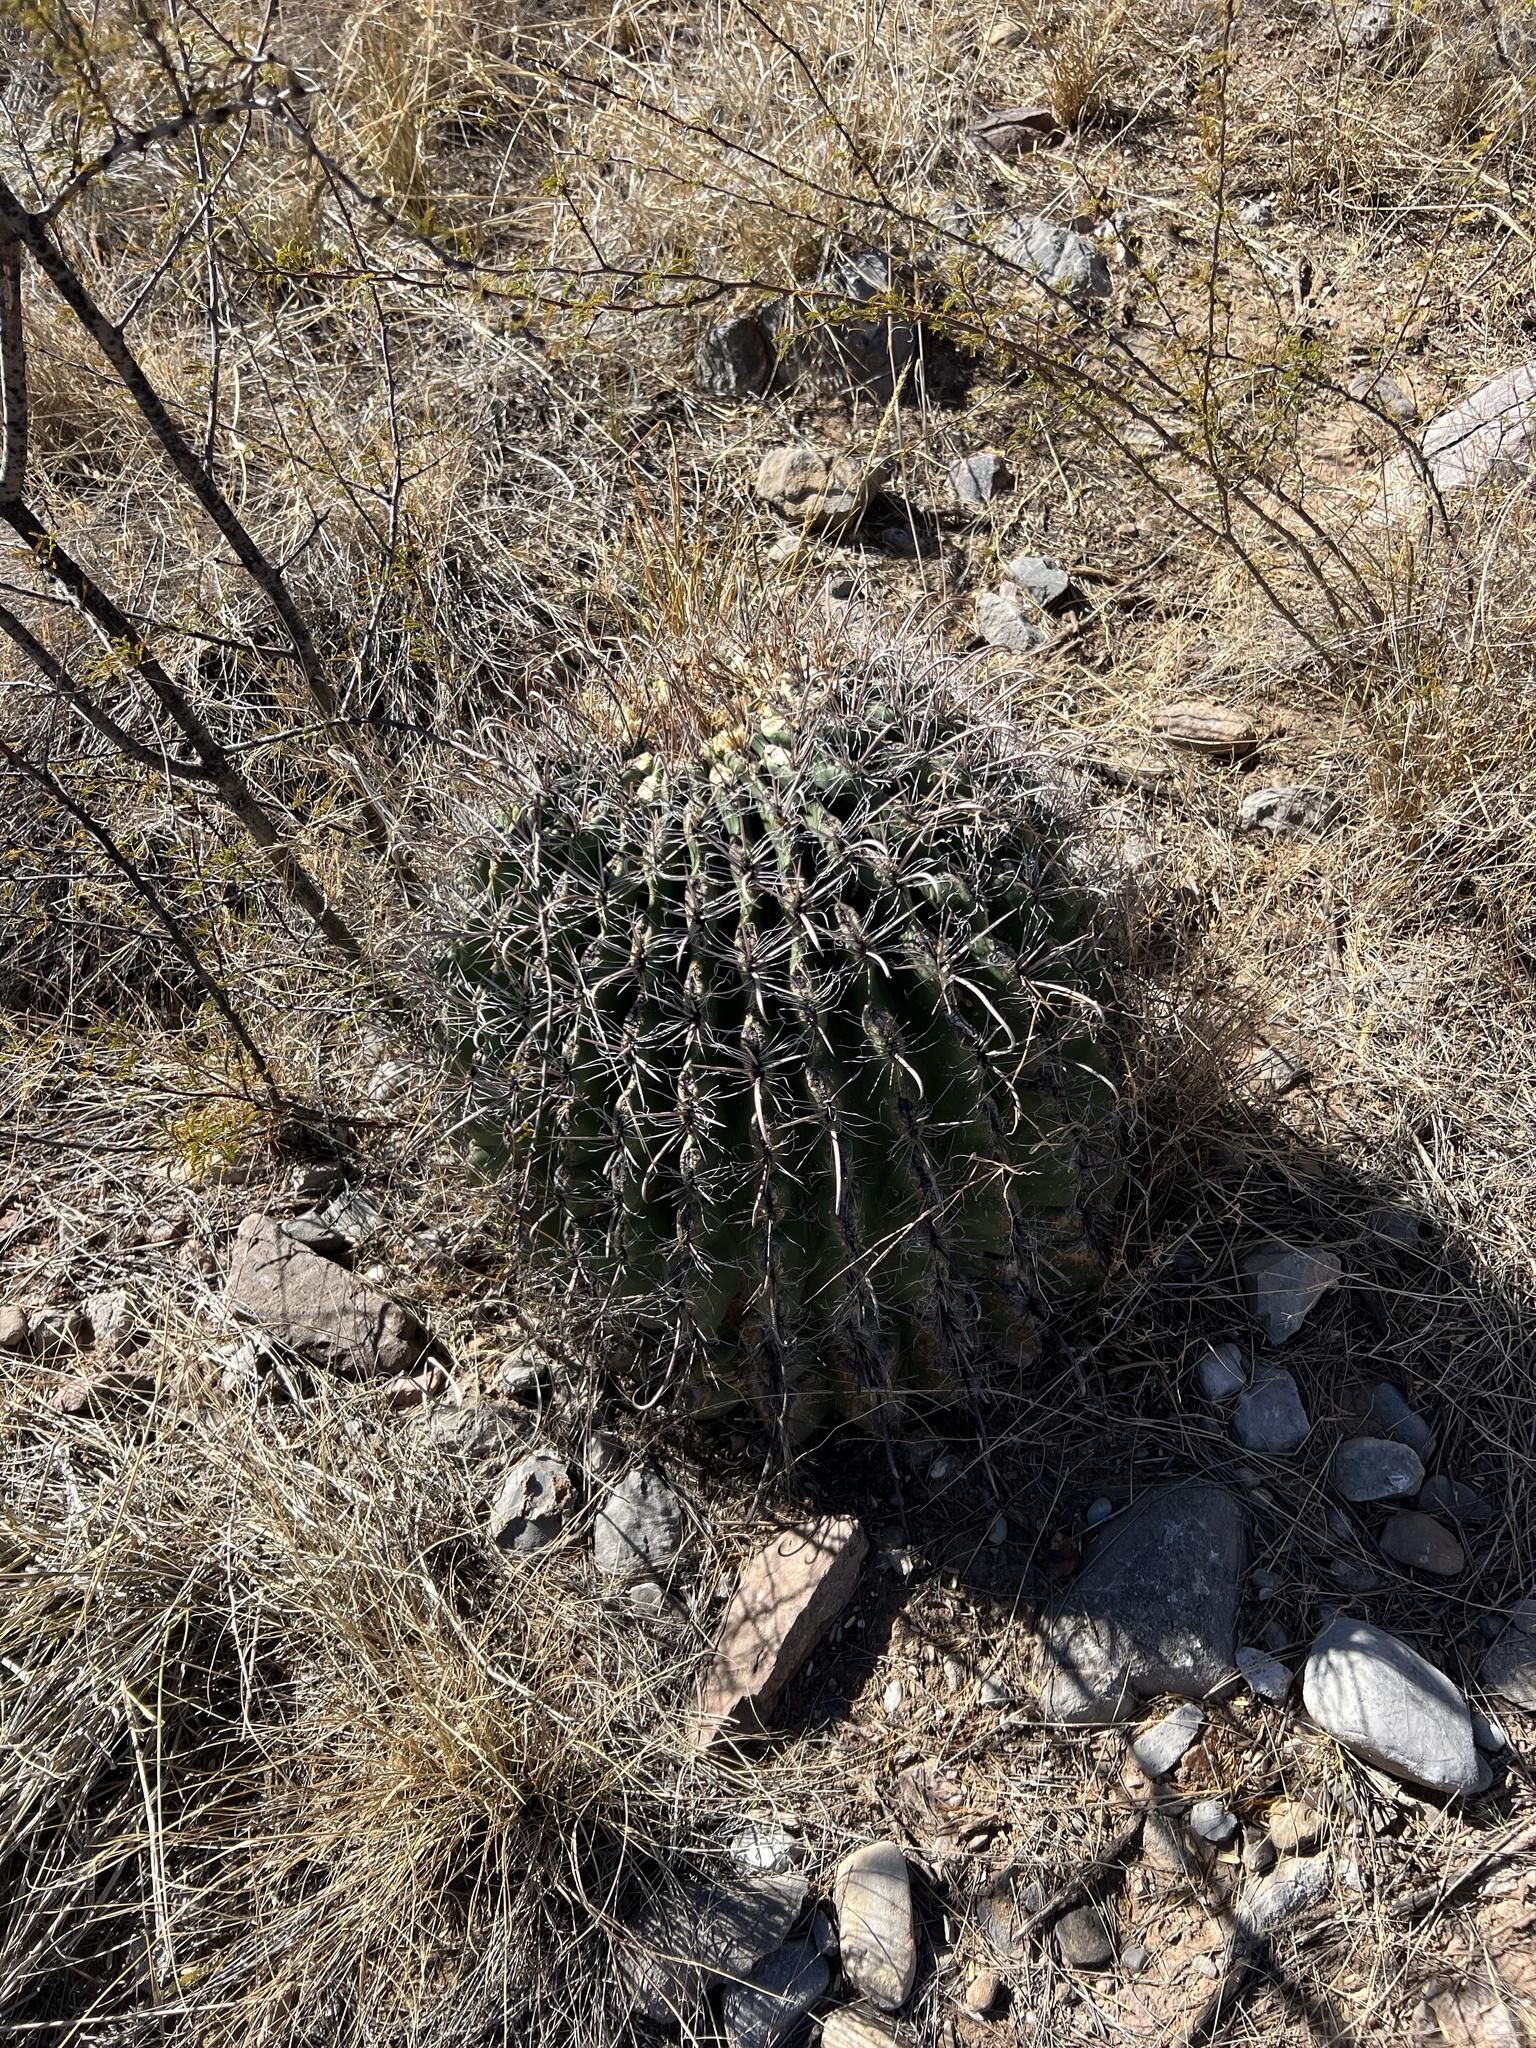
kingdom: Plantae
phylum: Tracheophyta
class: Magnoliopsida
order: Caryophyllales
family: Cactaceae
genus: Ferocactus
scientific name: Ferocactus wislizeni
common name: Candy barrel cactus
